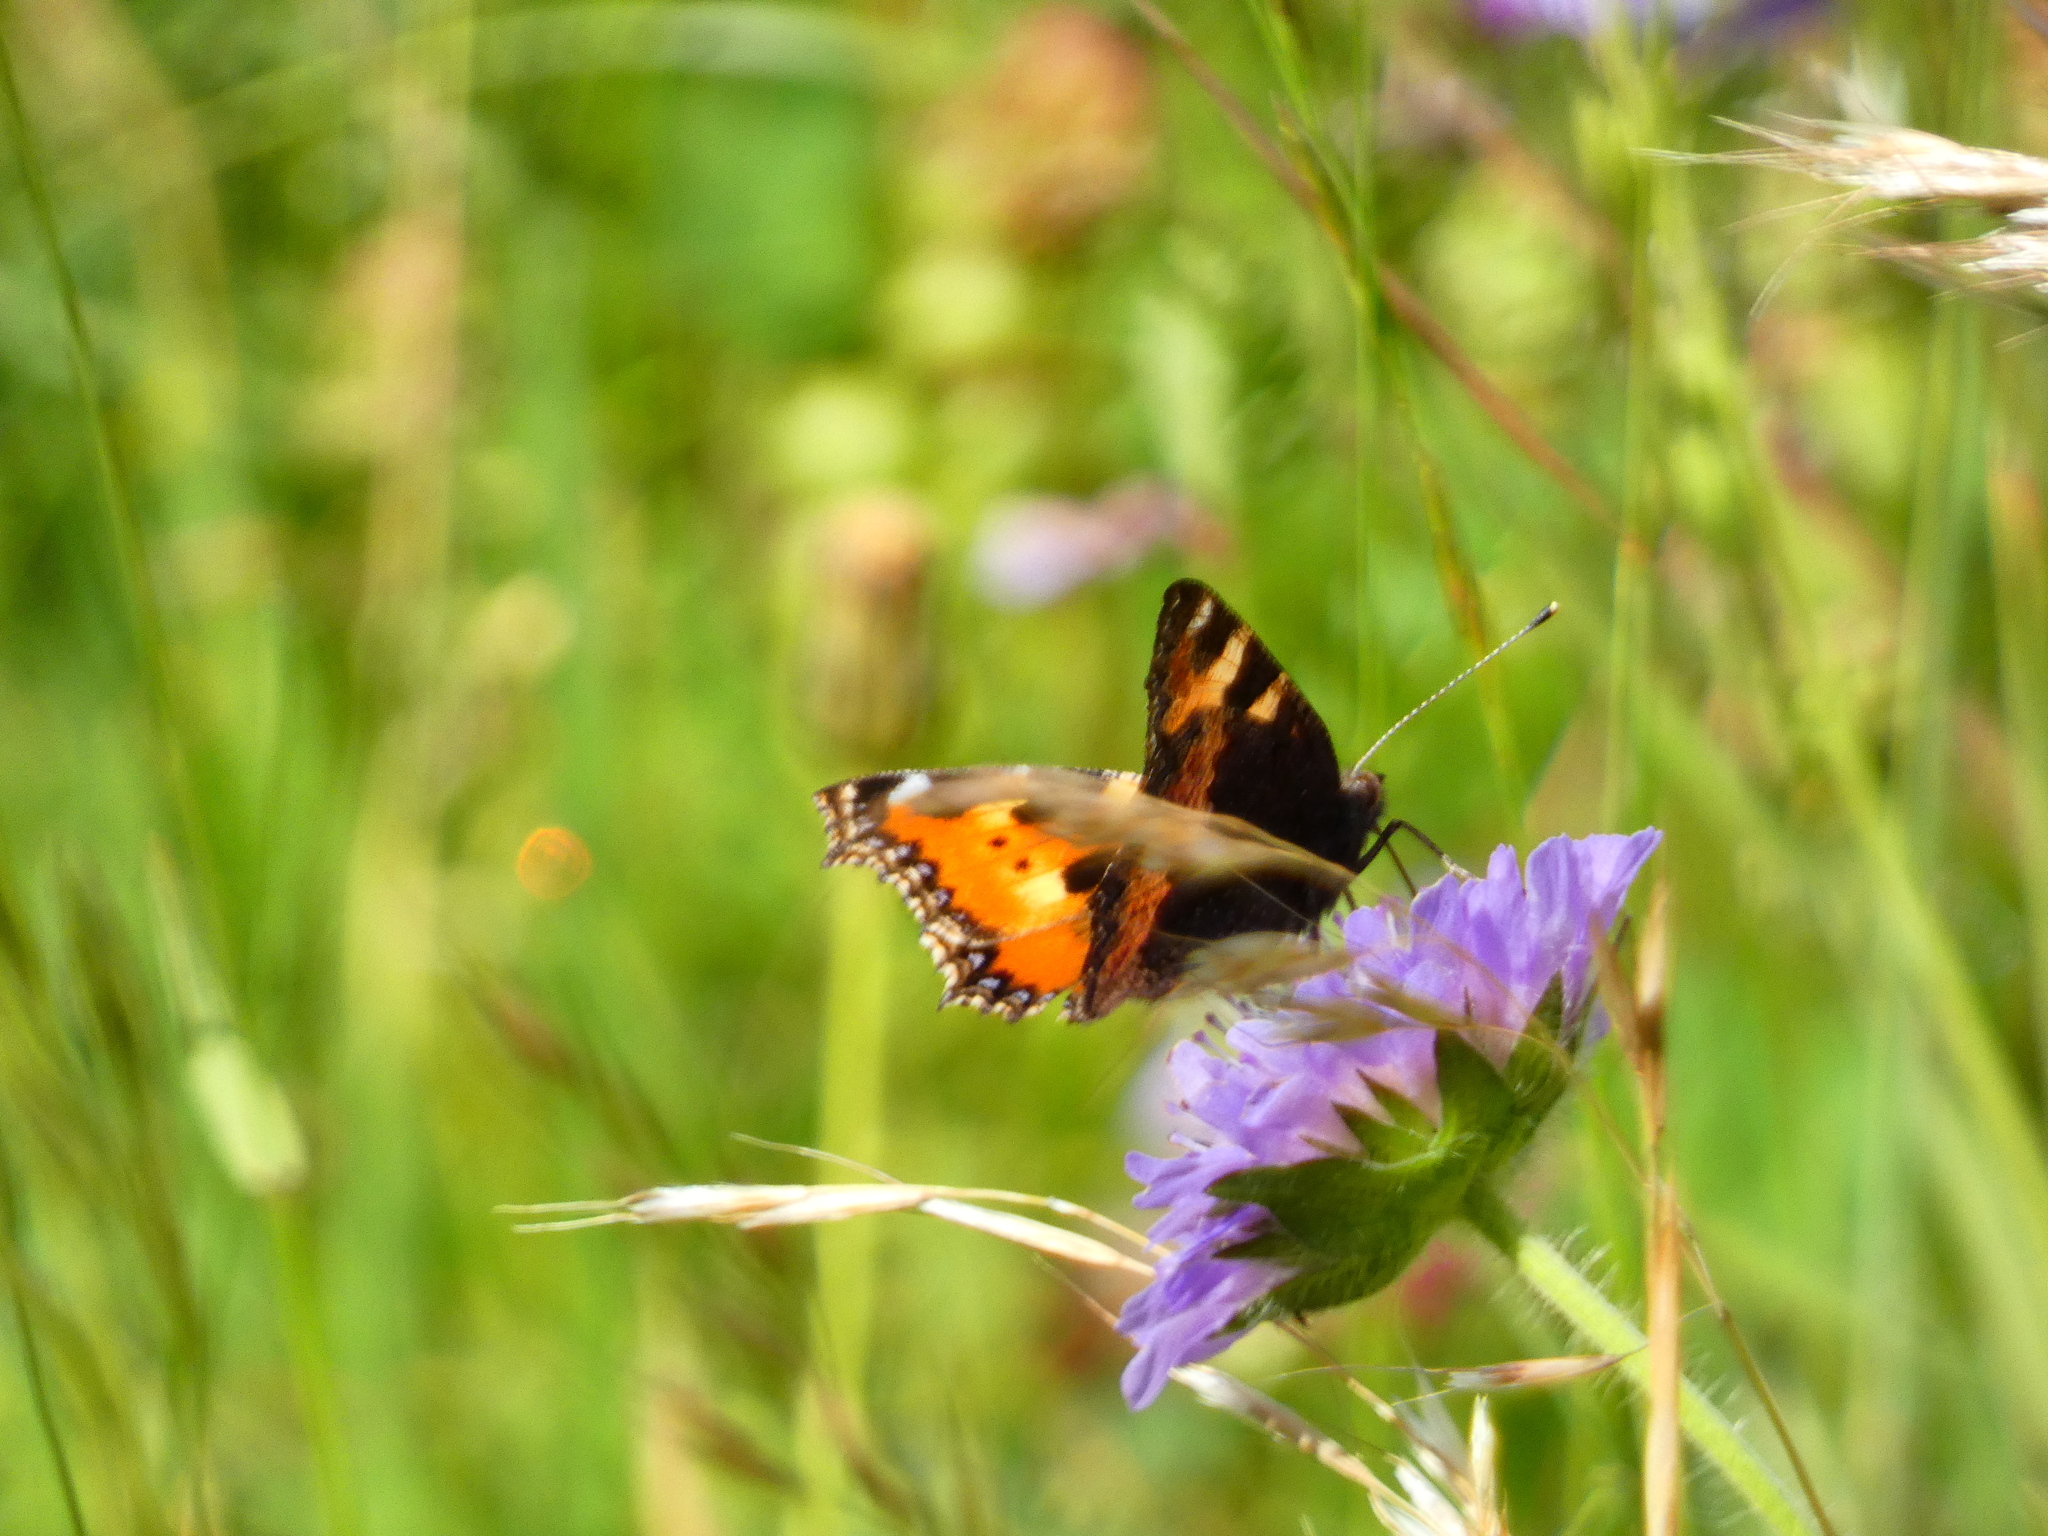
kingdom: Animalia
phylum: Arthropoda
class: Insecta
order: Lepidoptera
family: Nymphalidae
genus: Aglais
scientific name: Aglais urticae
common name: Small tortoiseshell
